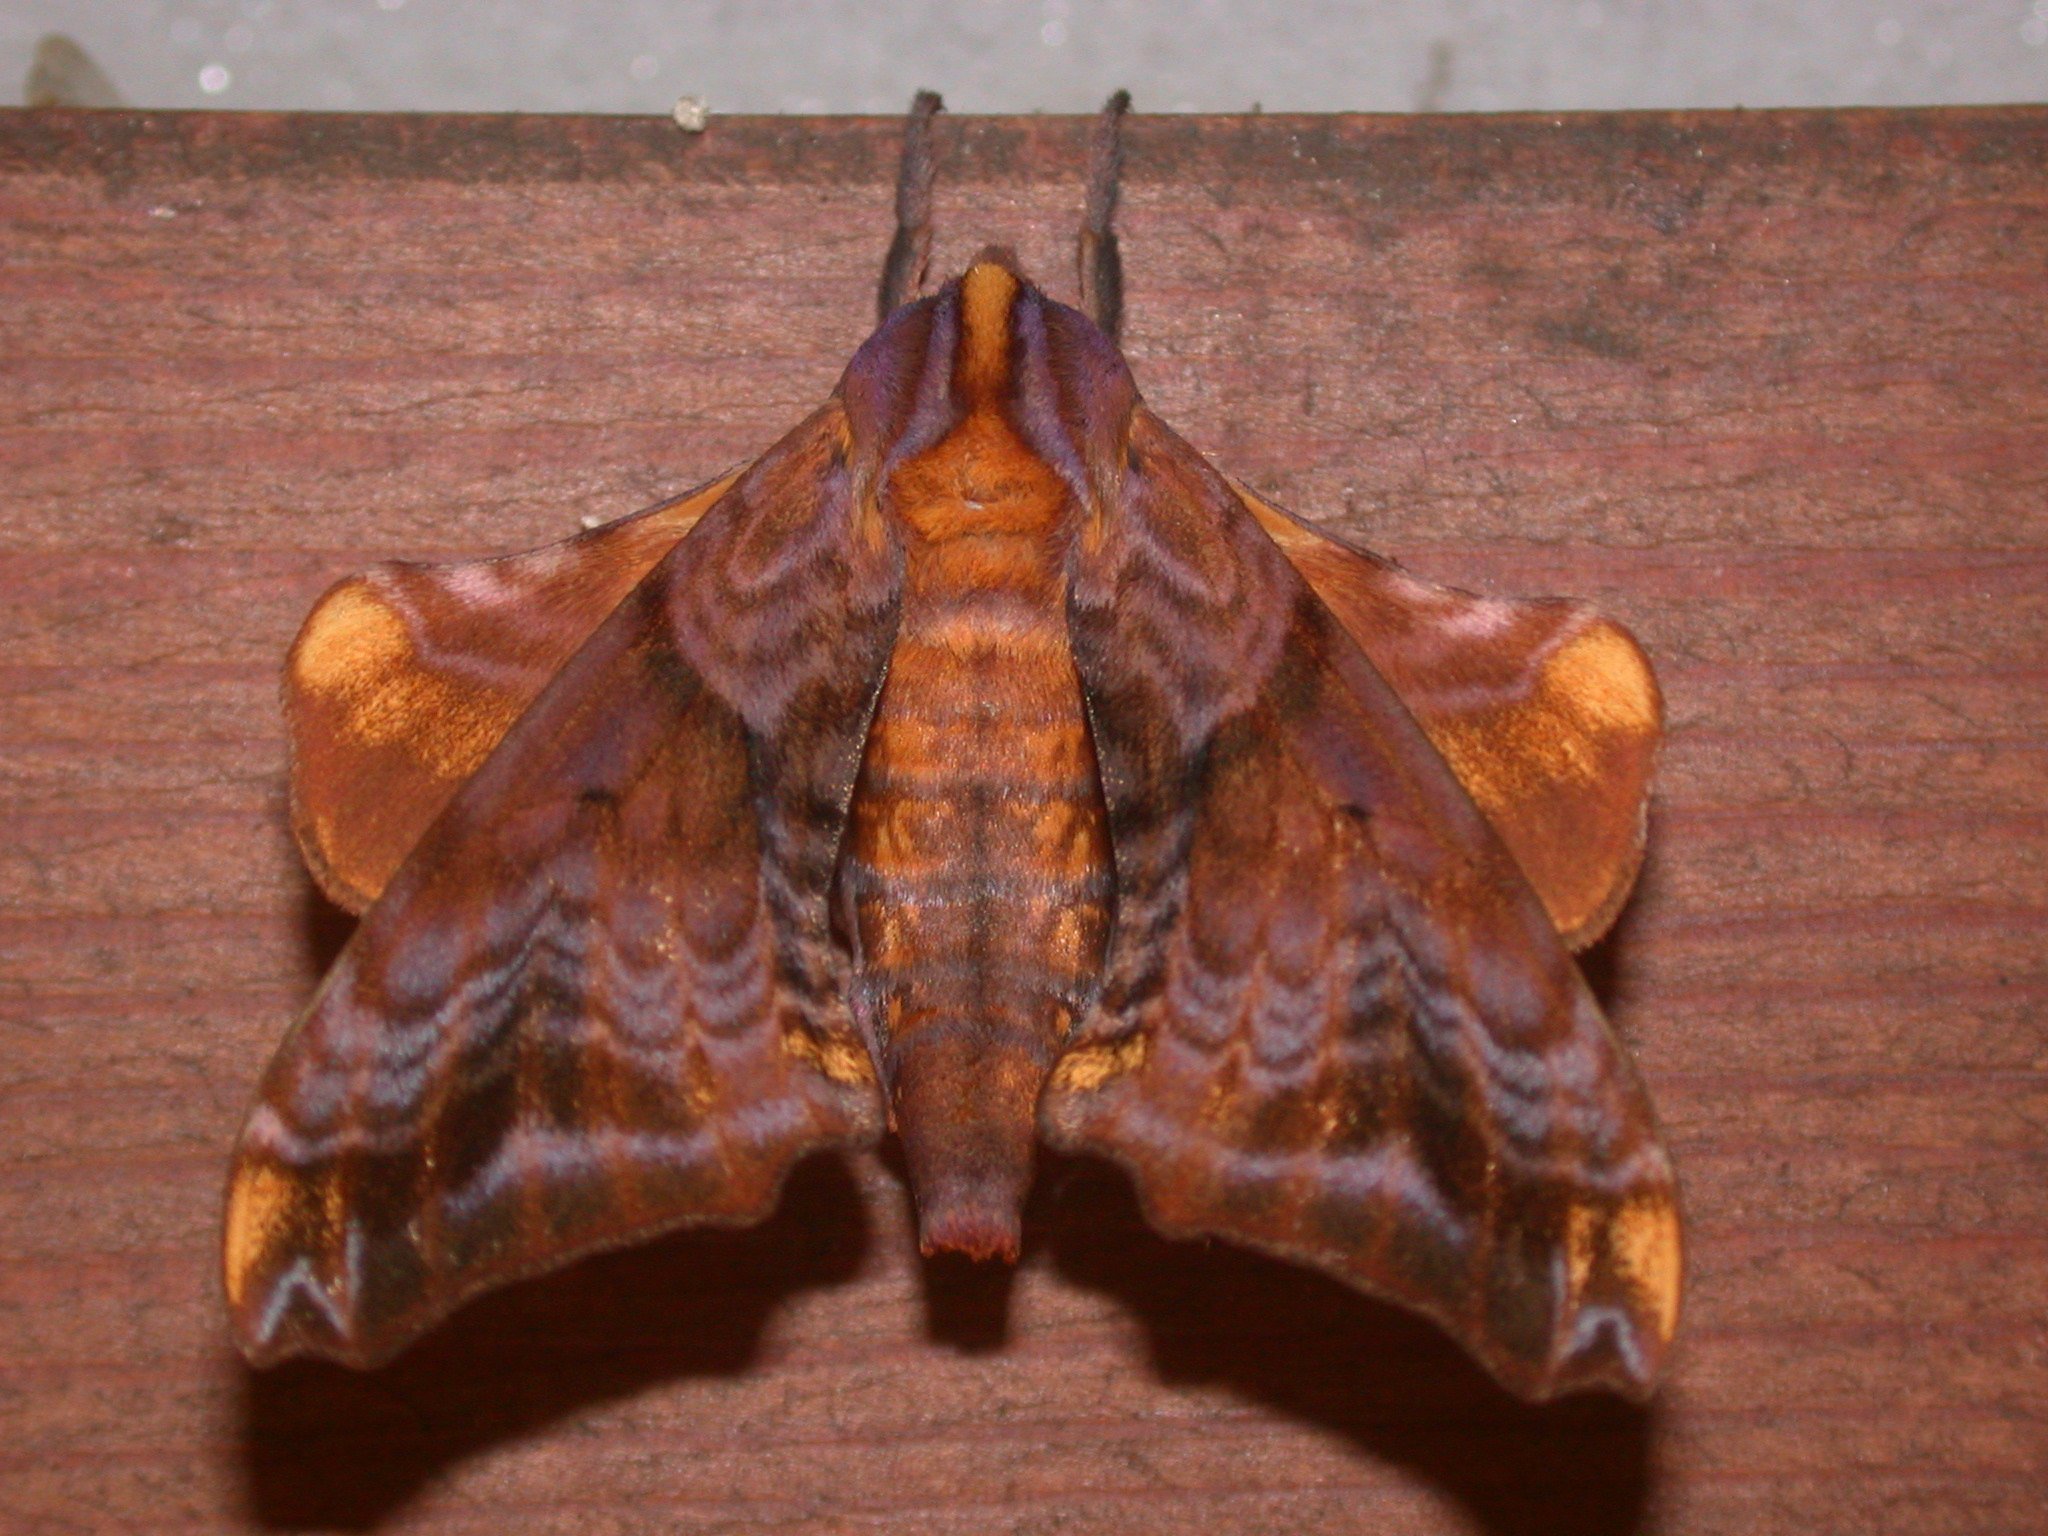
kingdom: Animalia
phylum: Arthropoda
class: Insecta
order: Lepidoptera
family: Sphingidae
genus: Paonias
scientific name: Paonias myops
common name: Small-eyed sphinx
